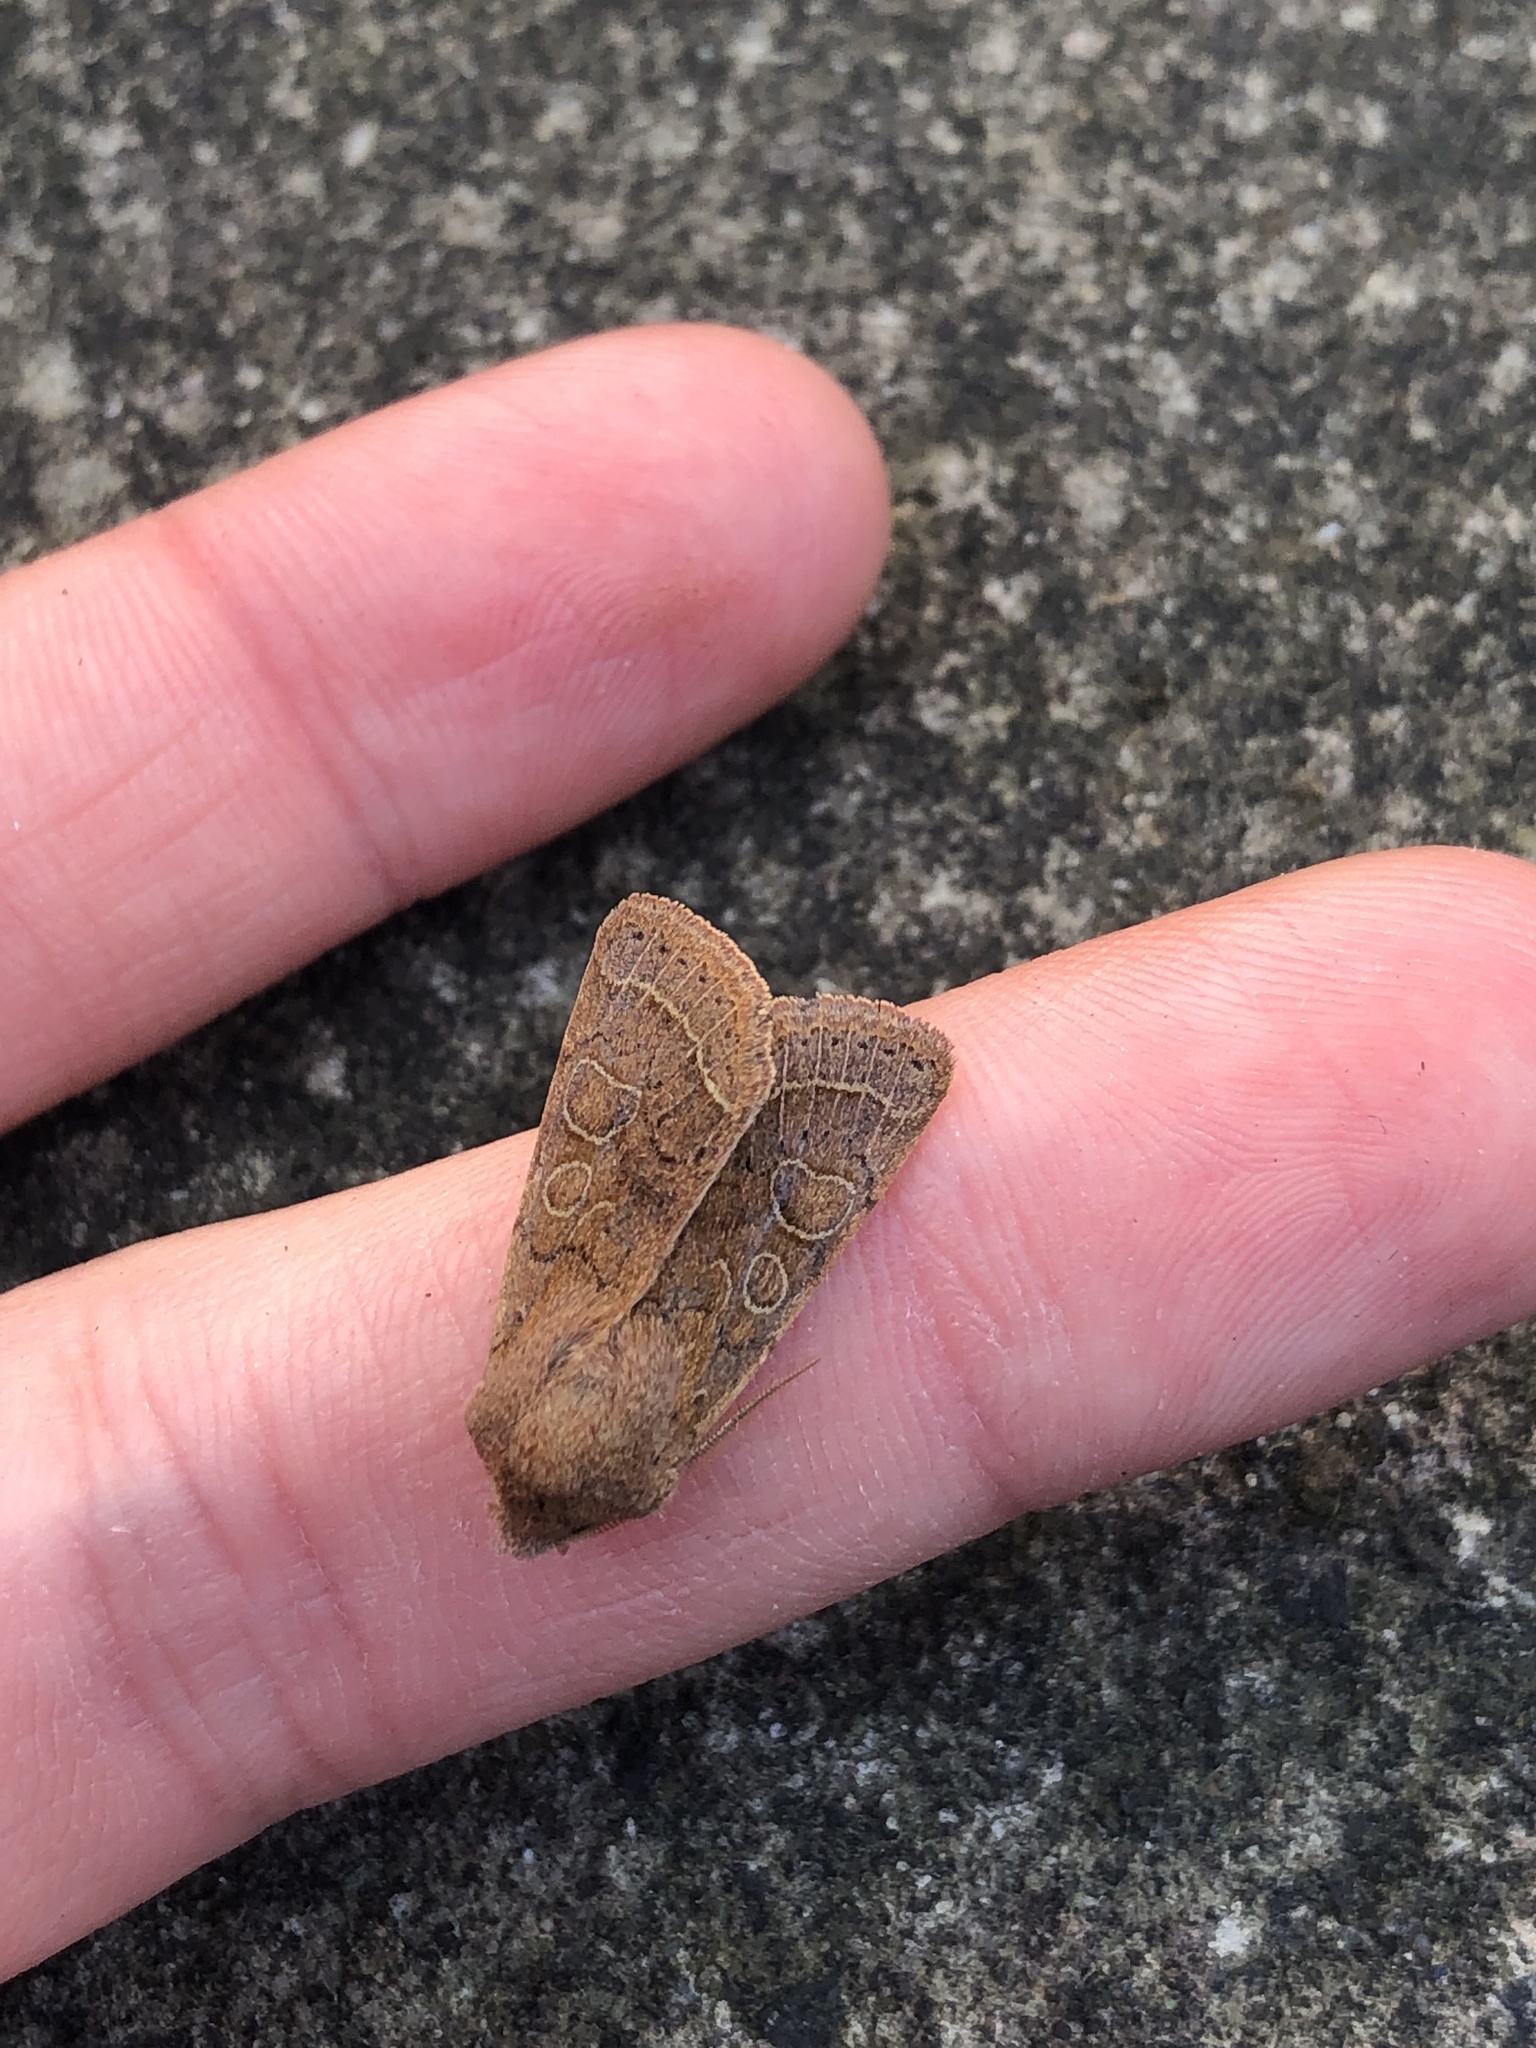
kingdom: Animalia
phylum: Arthropoda
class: Insecta
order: Lepidoptera
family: Noctuidae
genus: Orthosia
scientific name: Orthosia cerasi
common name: Common quaker
